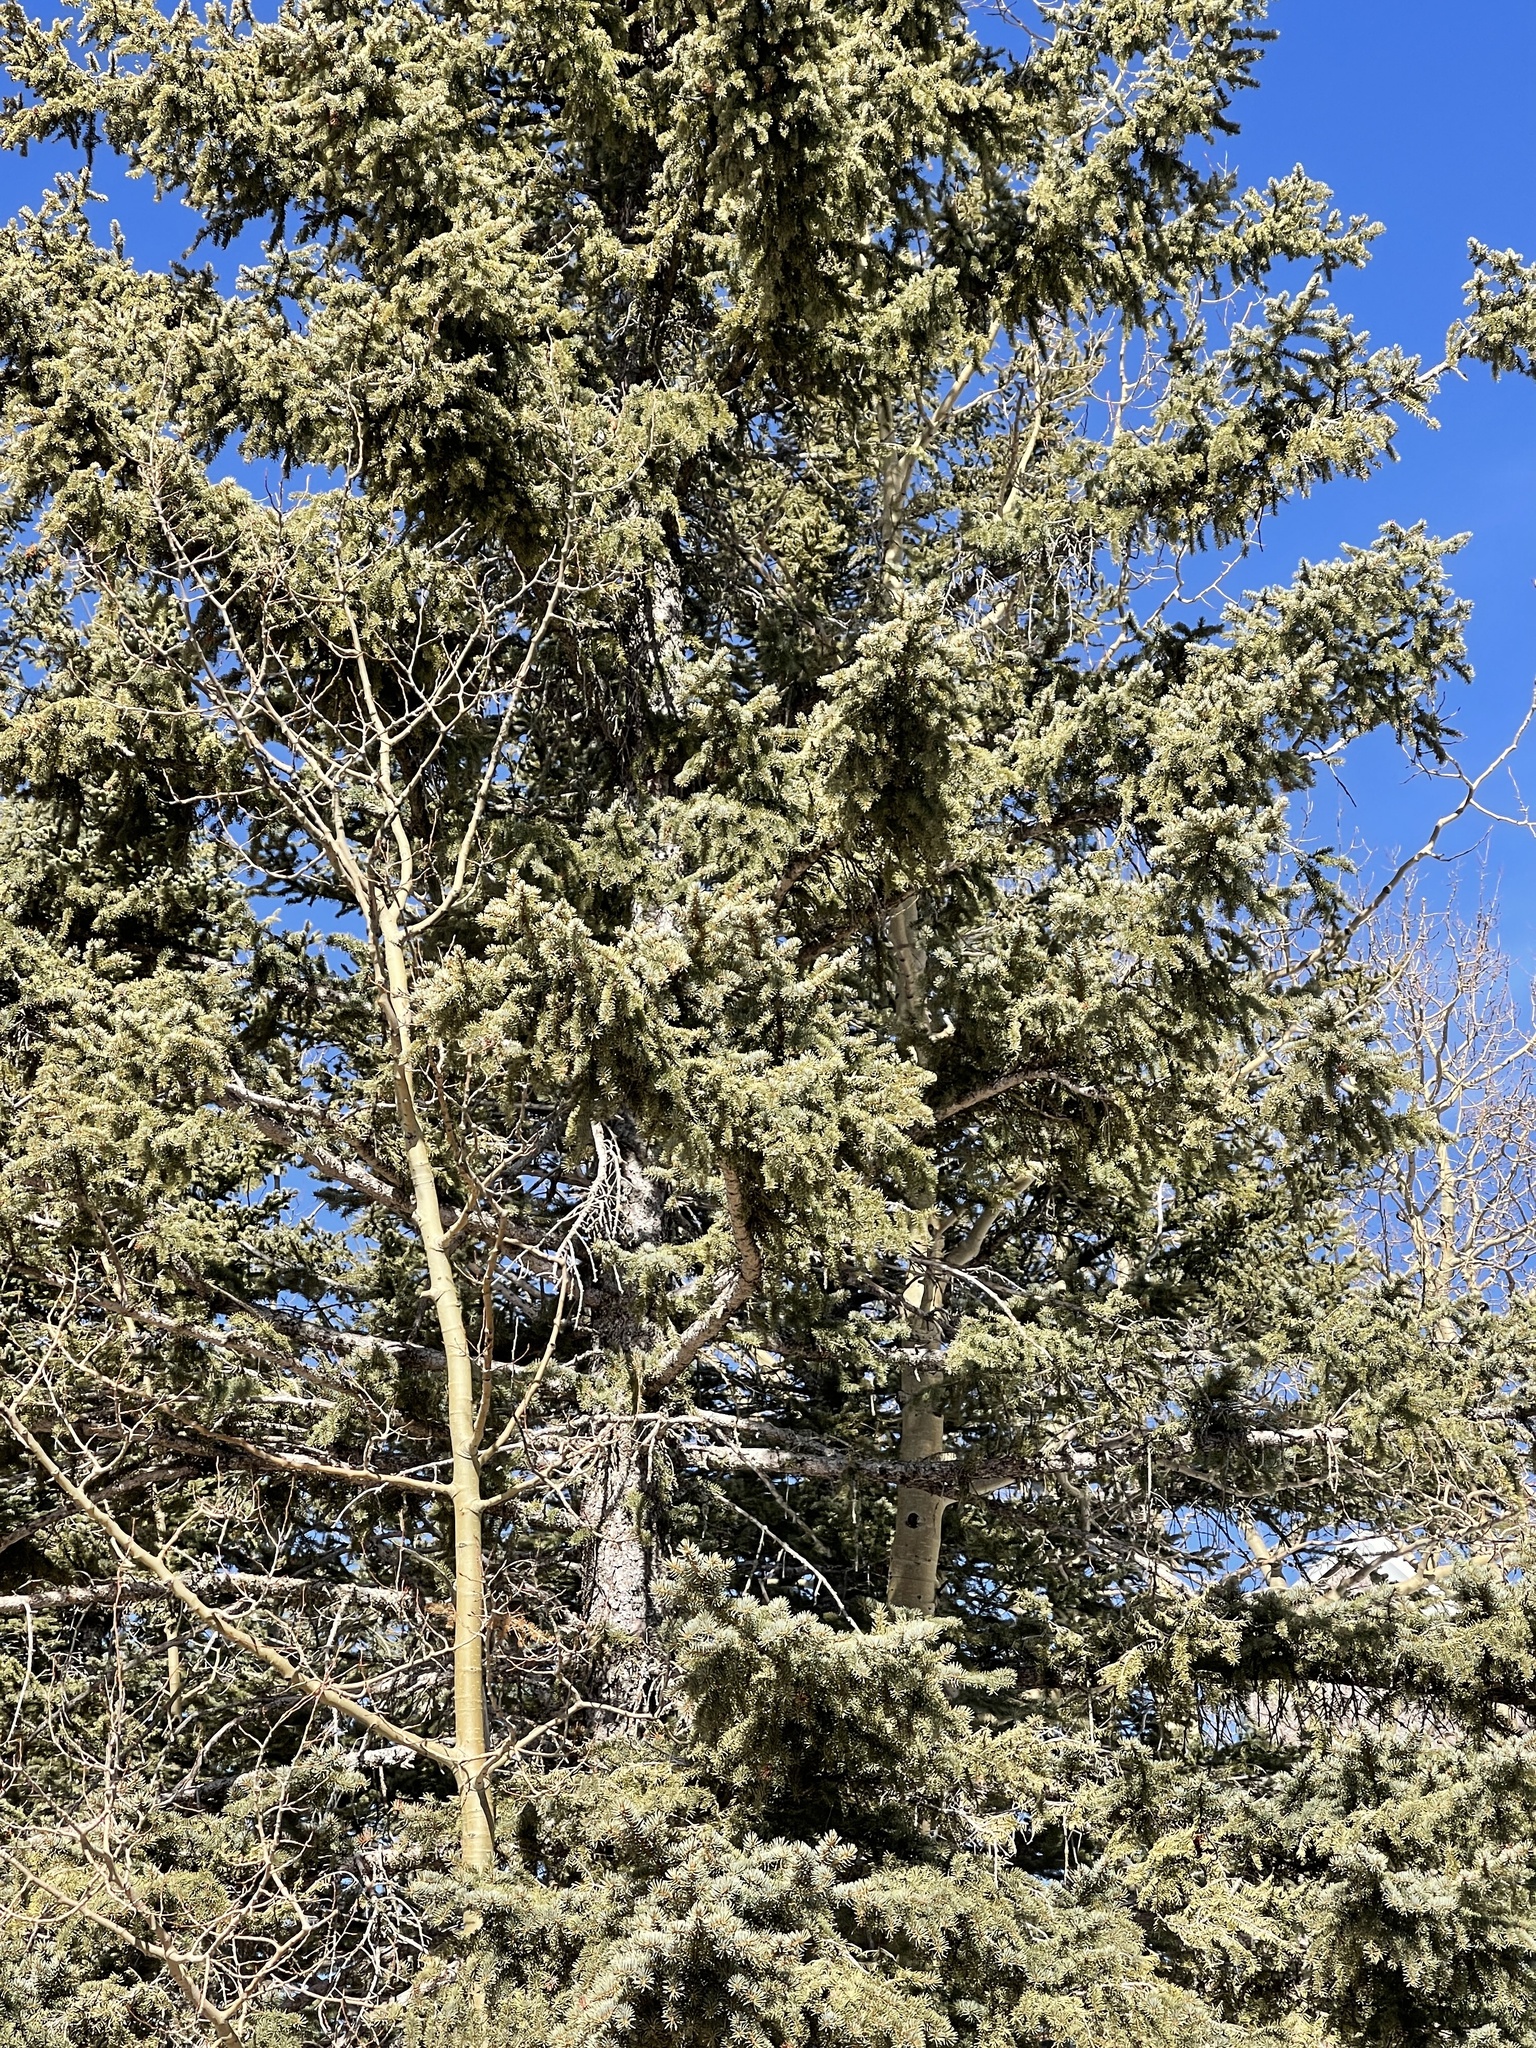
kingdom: Plantae
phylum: Tracheophyta
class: Pinopsida
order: Pinales
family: Pinaceae
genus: Picea
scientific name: Picea engelmannii
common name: Engelmann spruce
